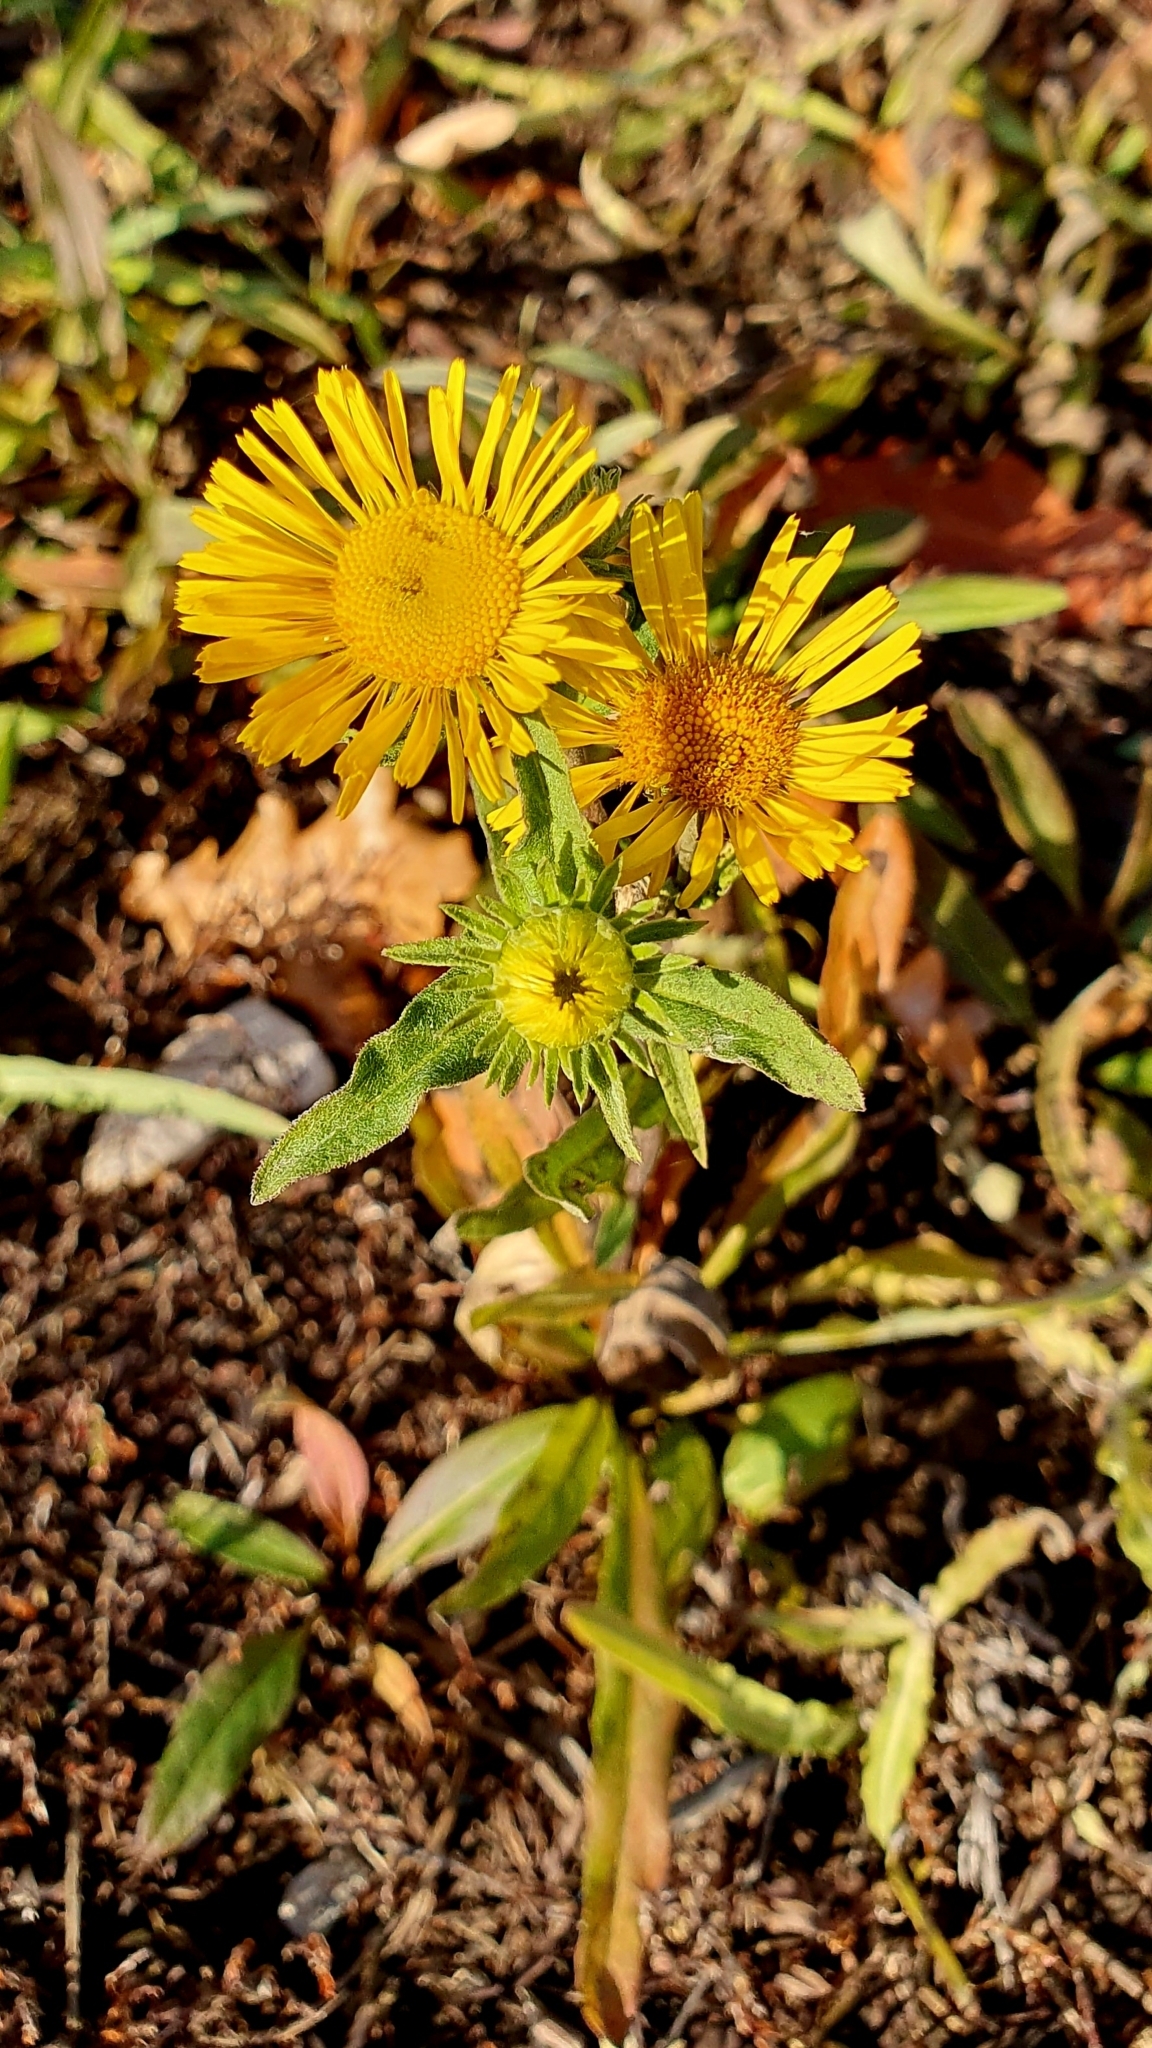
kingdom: Plantae
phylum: Tracheophyta
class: Magnoliopsida
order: Asterales
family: Asteraceae
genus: Pentanema
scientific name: Pentanema britannicum
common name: British elecampane
